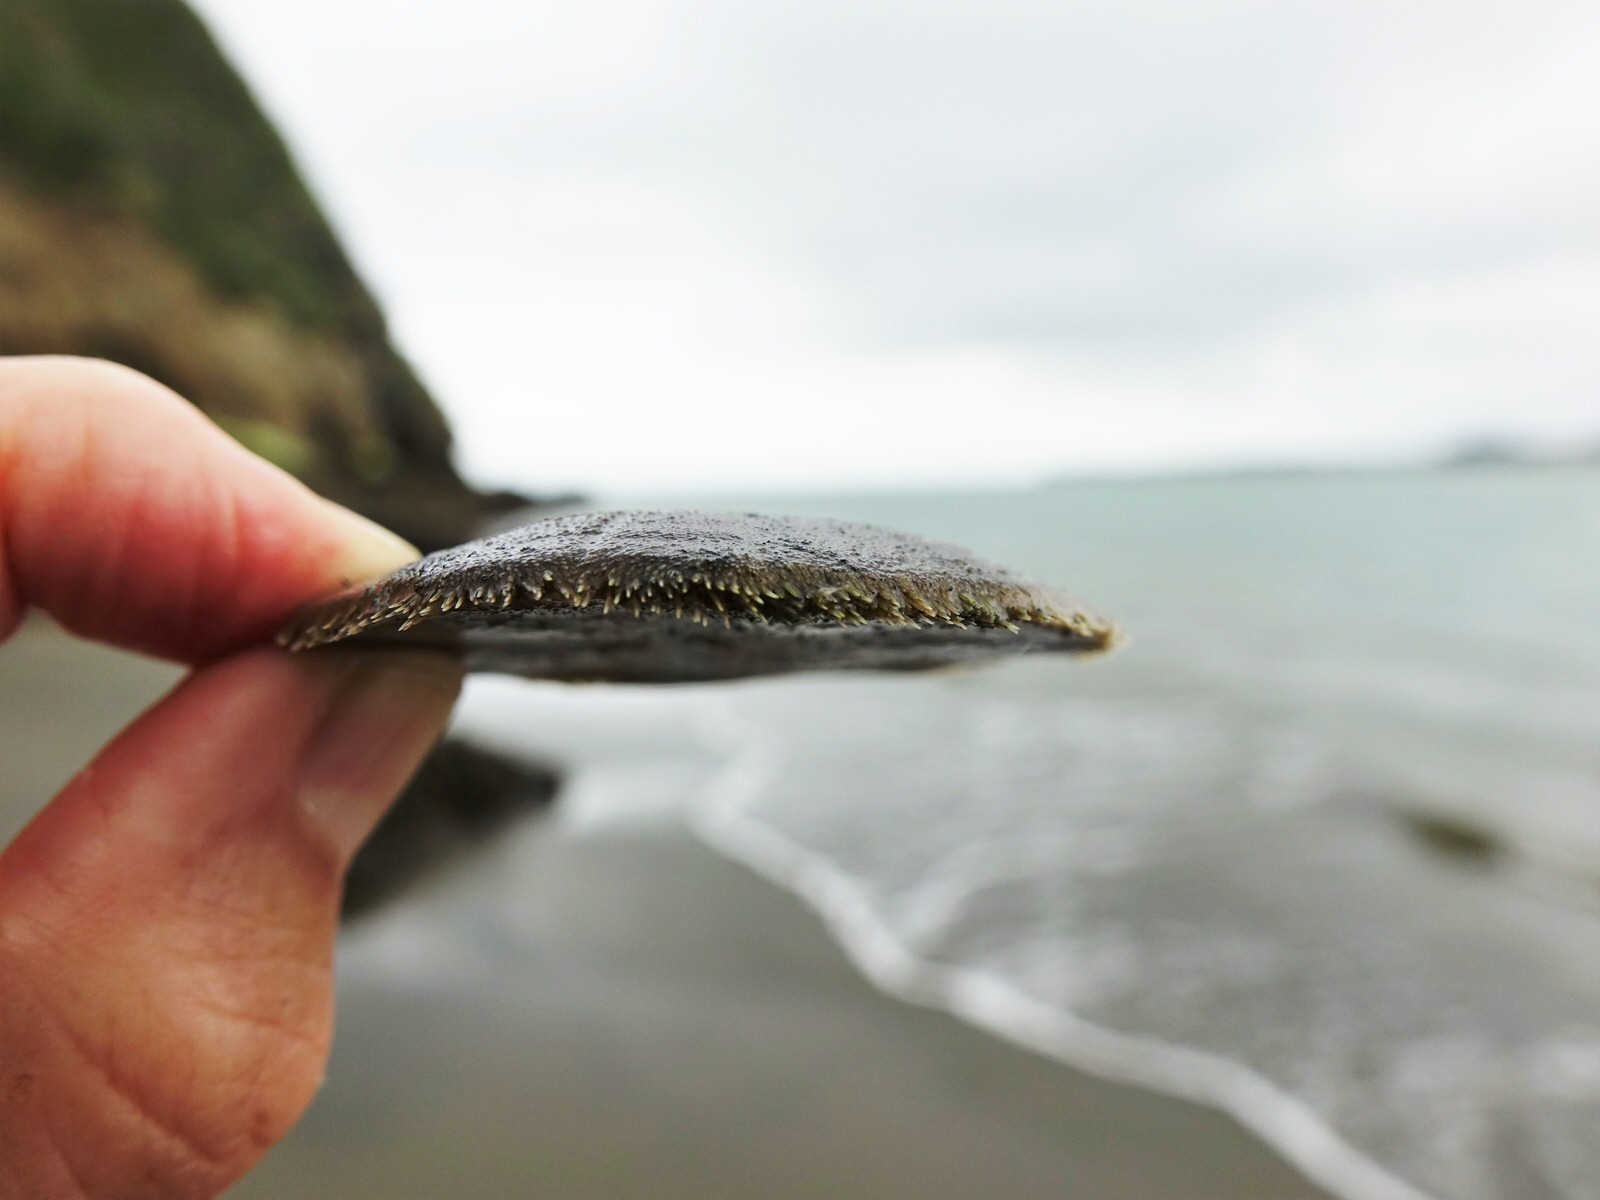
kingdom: Animalia
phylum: Echinodermata
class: Echinoidea
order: Clypeasteroida
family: Clypeasteridae
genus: Fellaster
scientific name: Fellaster zelandiae
